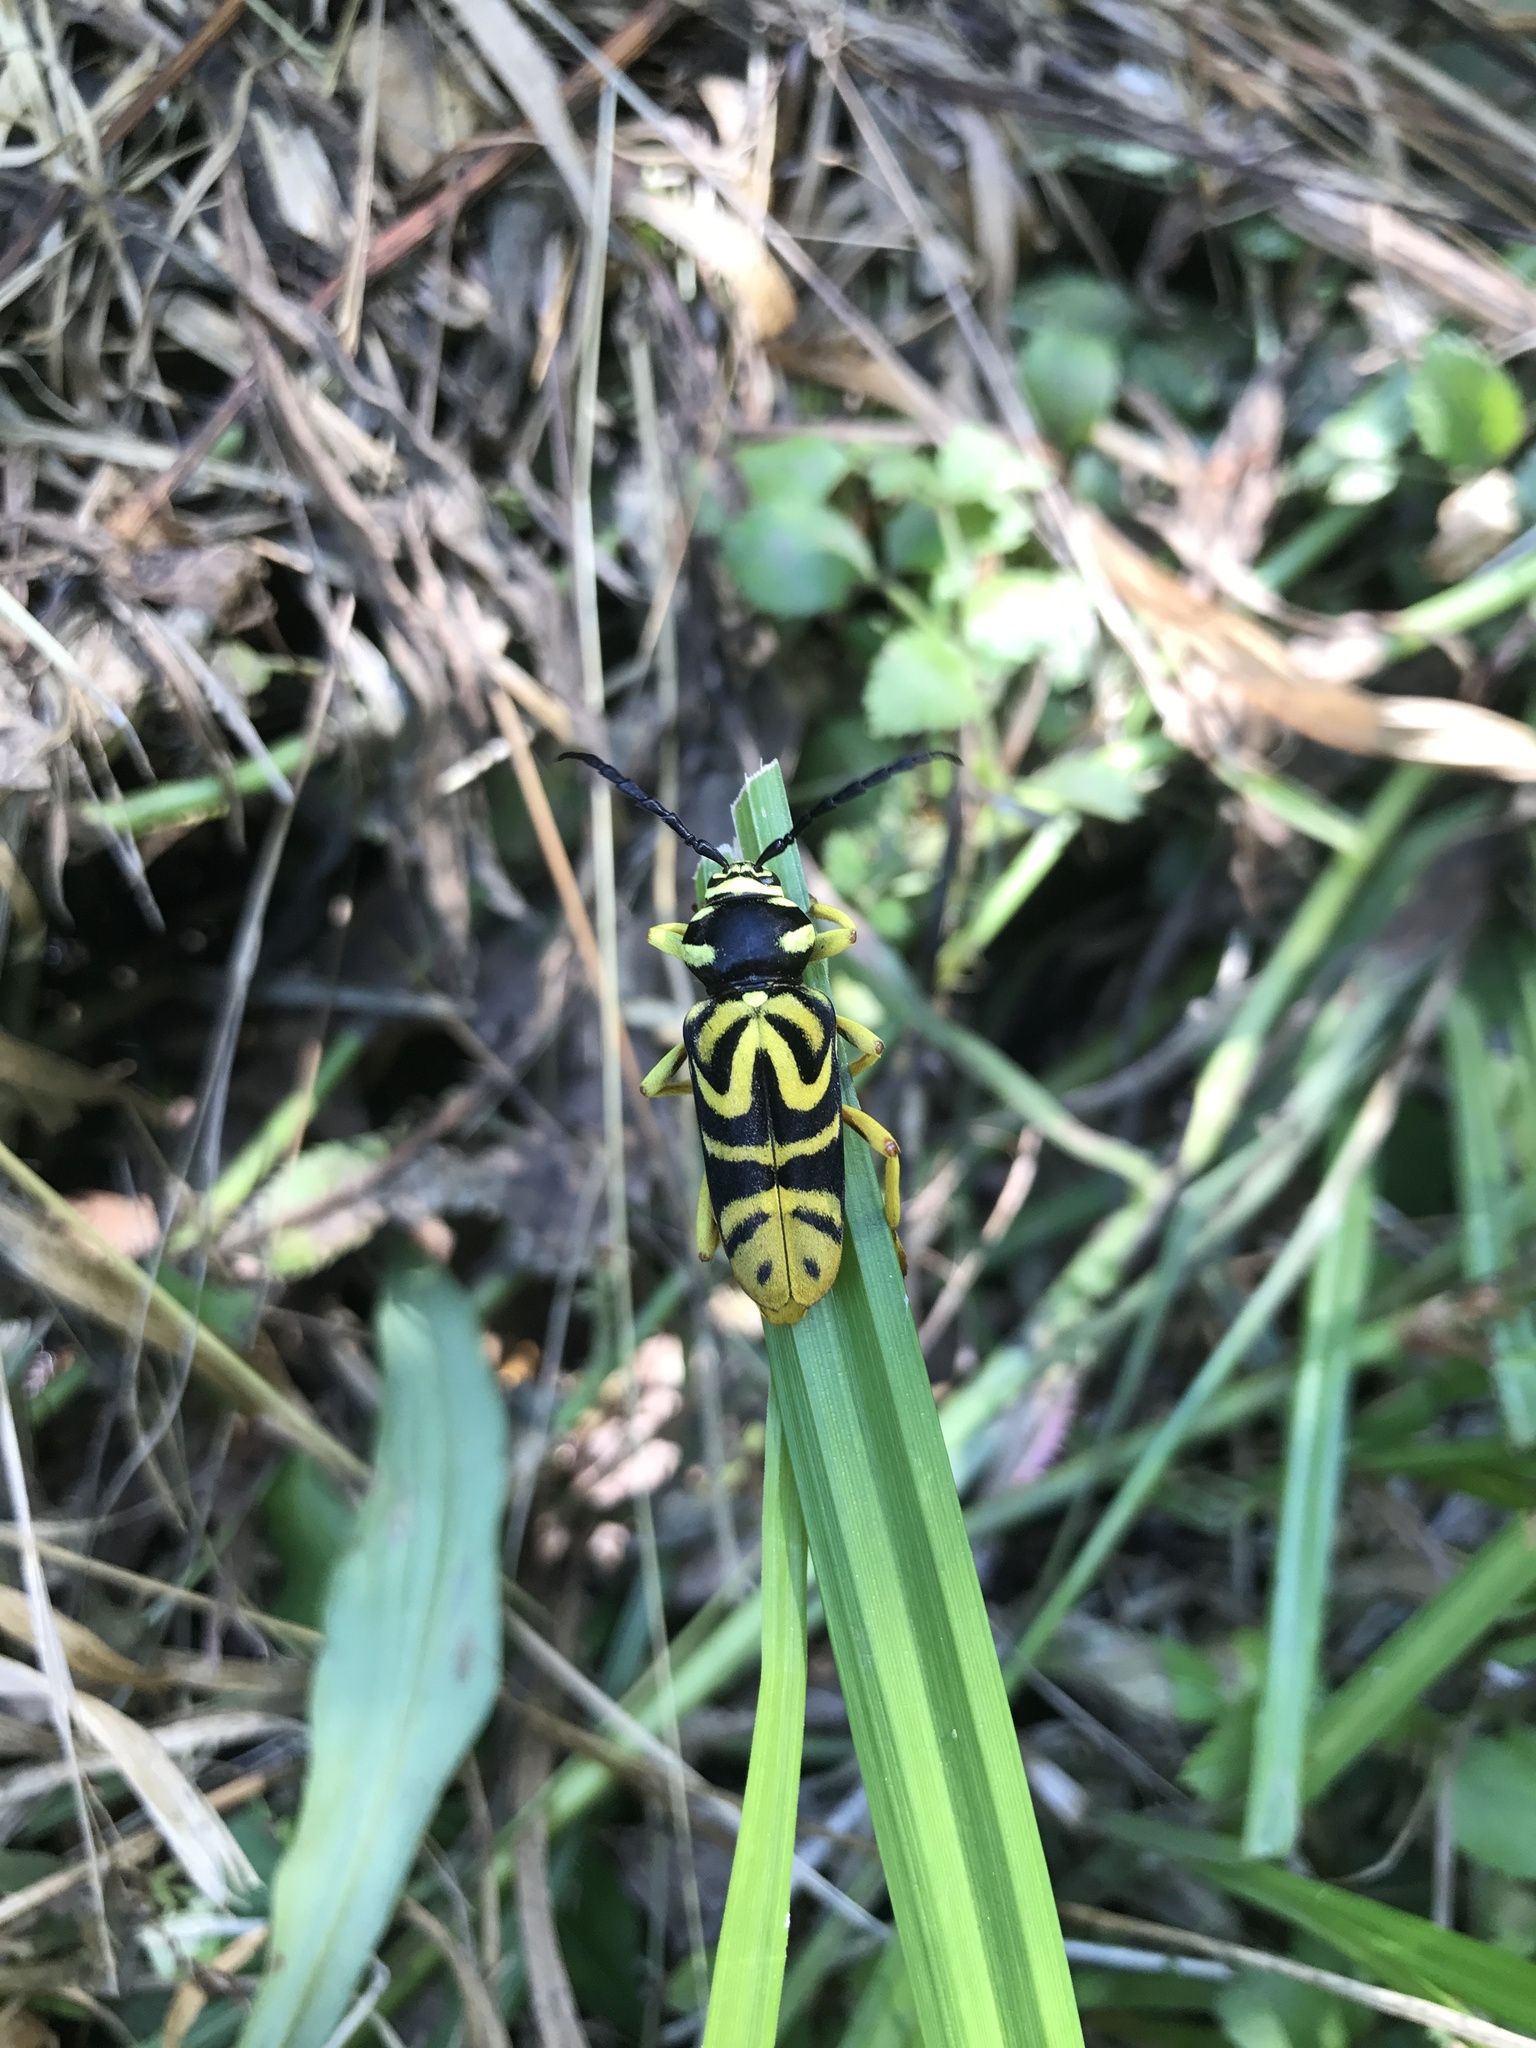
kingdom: Animalia
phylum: Arthropoda
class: Insecta
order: Coleoptera
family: Cerambycidae
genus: Glycobius
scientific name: Glycobius speciosus
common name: Sugar maple borer
